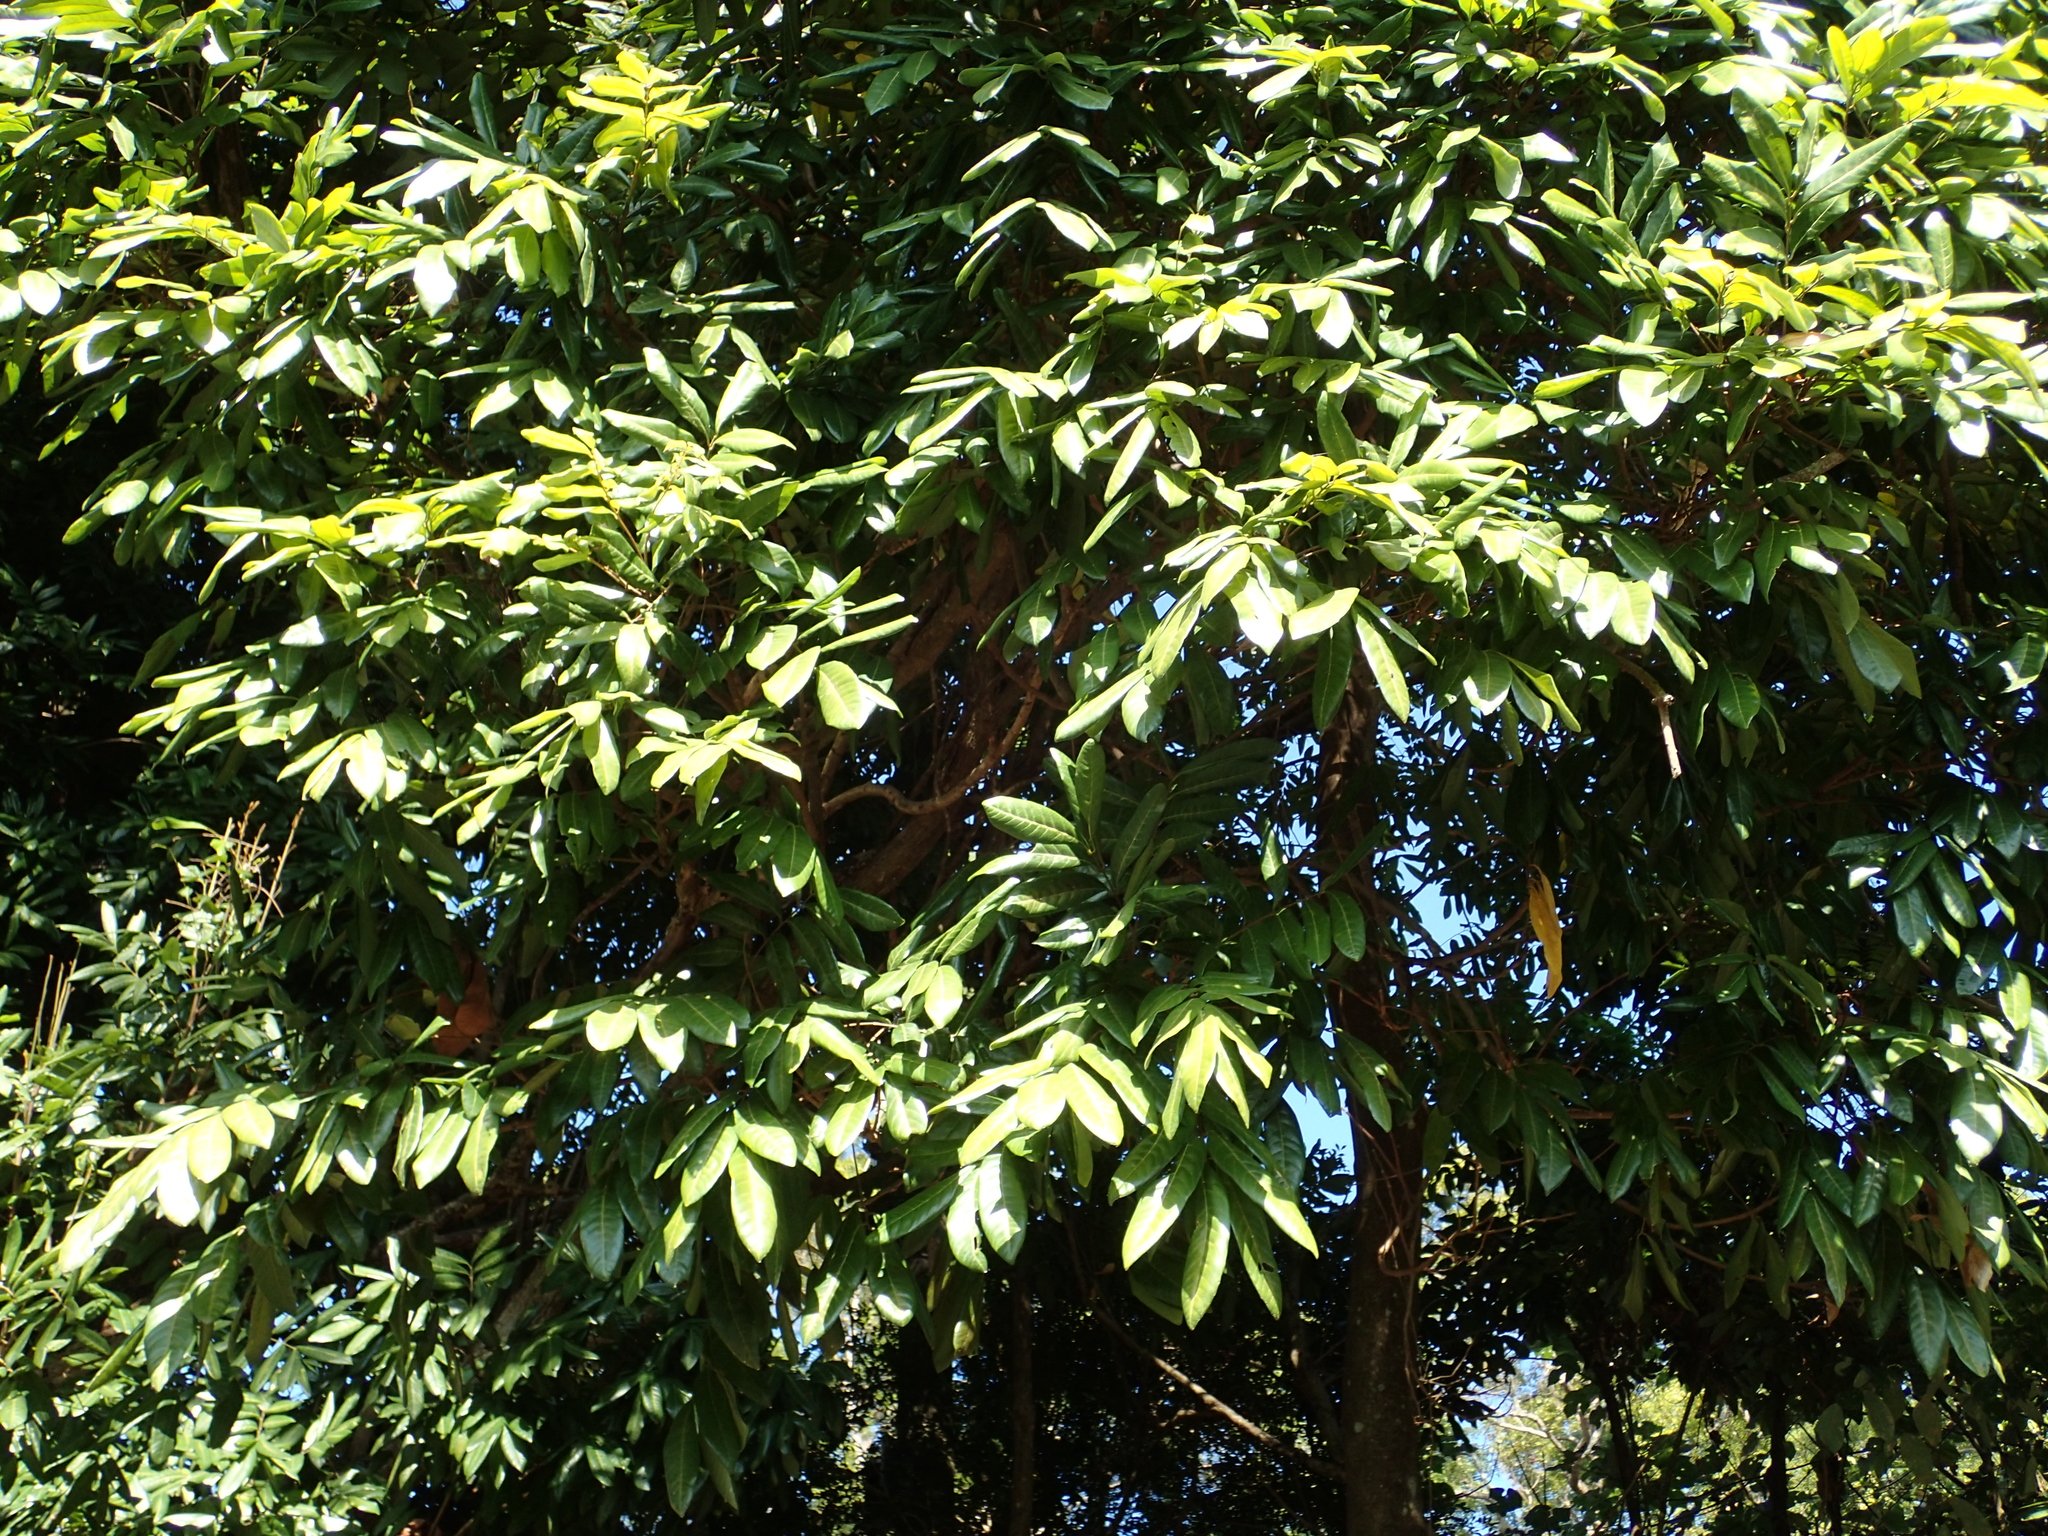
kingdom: Plantae
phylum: Tracheophyta
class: Magnoliopsida
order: Sapindales
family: Sapindaceae
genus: Dimocarpus
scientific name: Dimocarpus longan
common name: Longan
